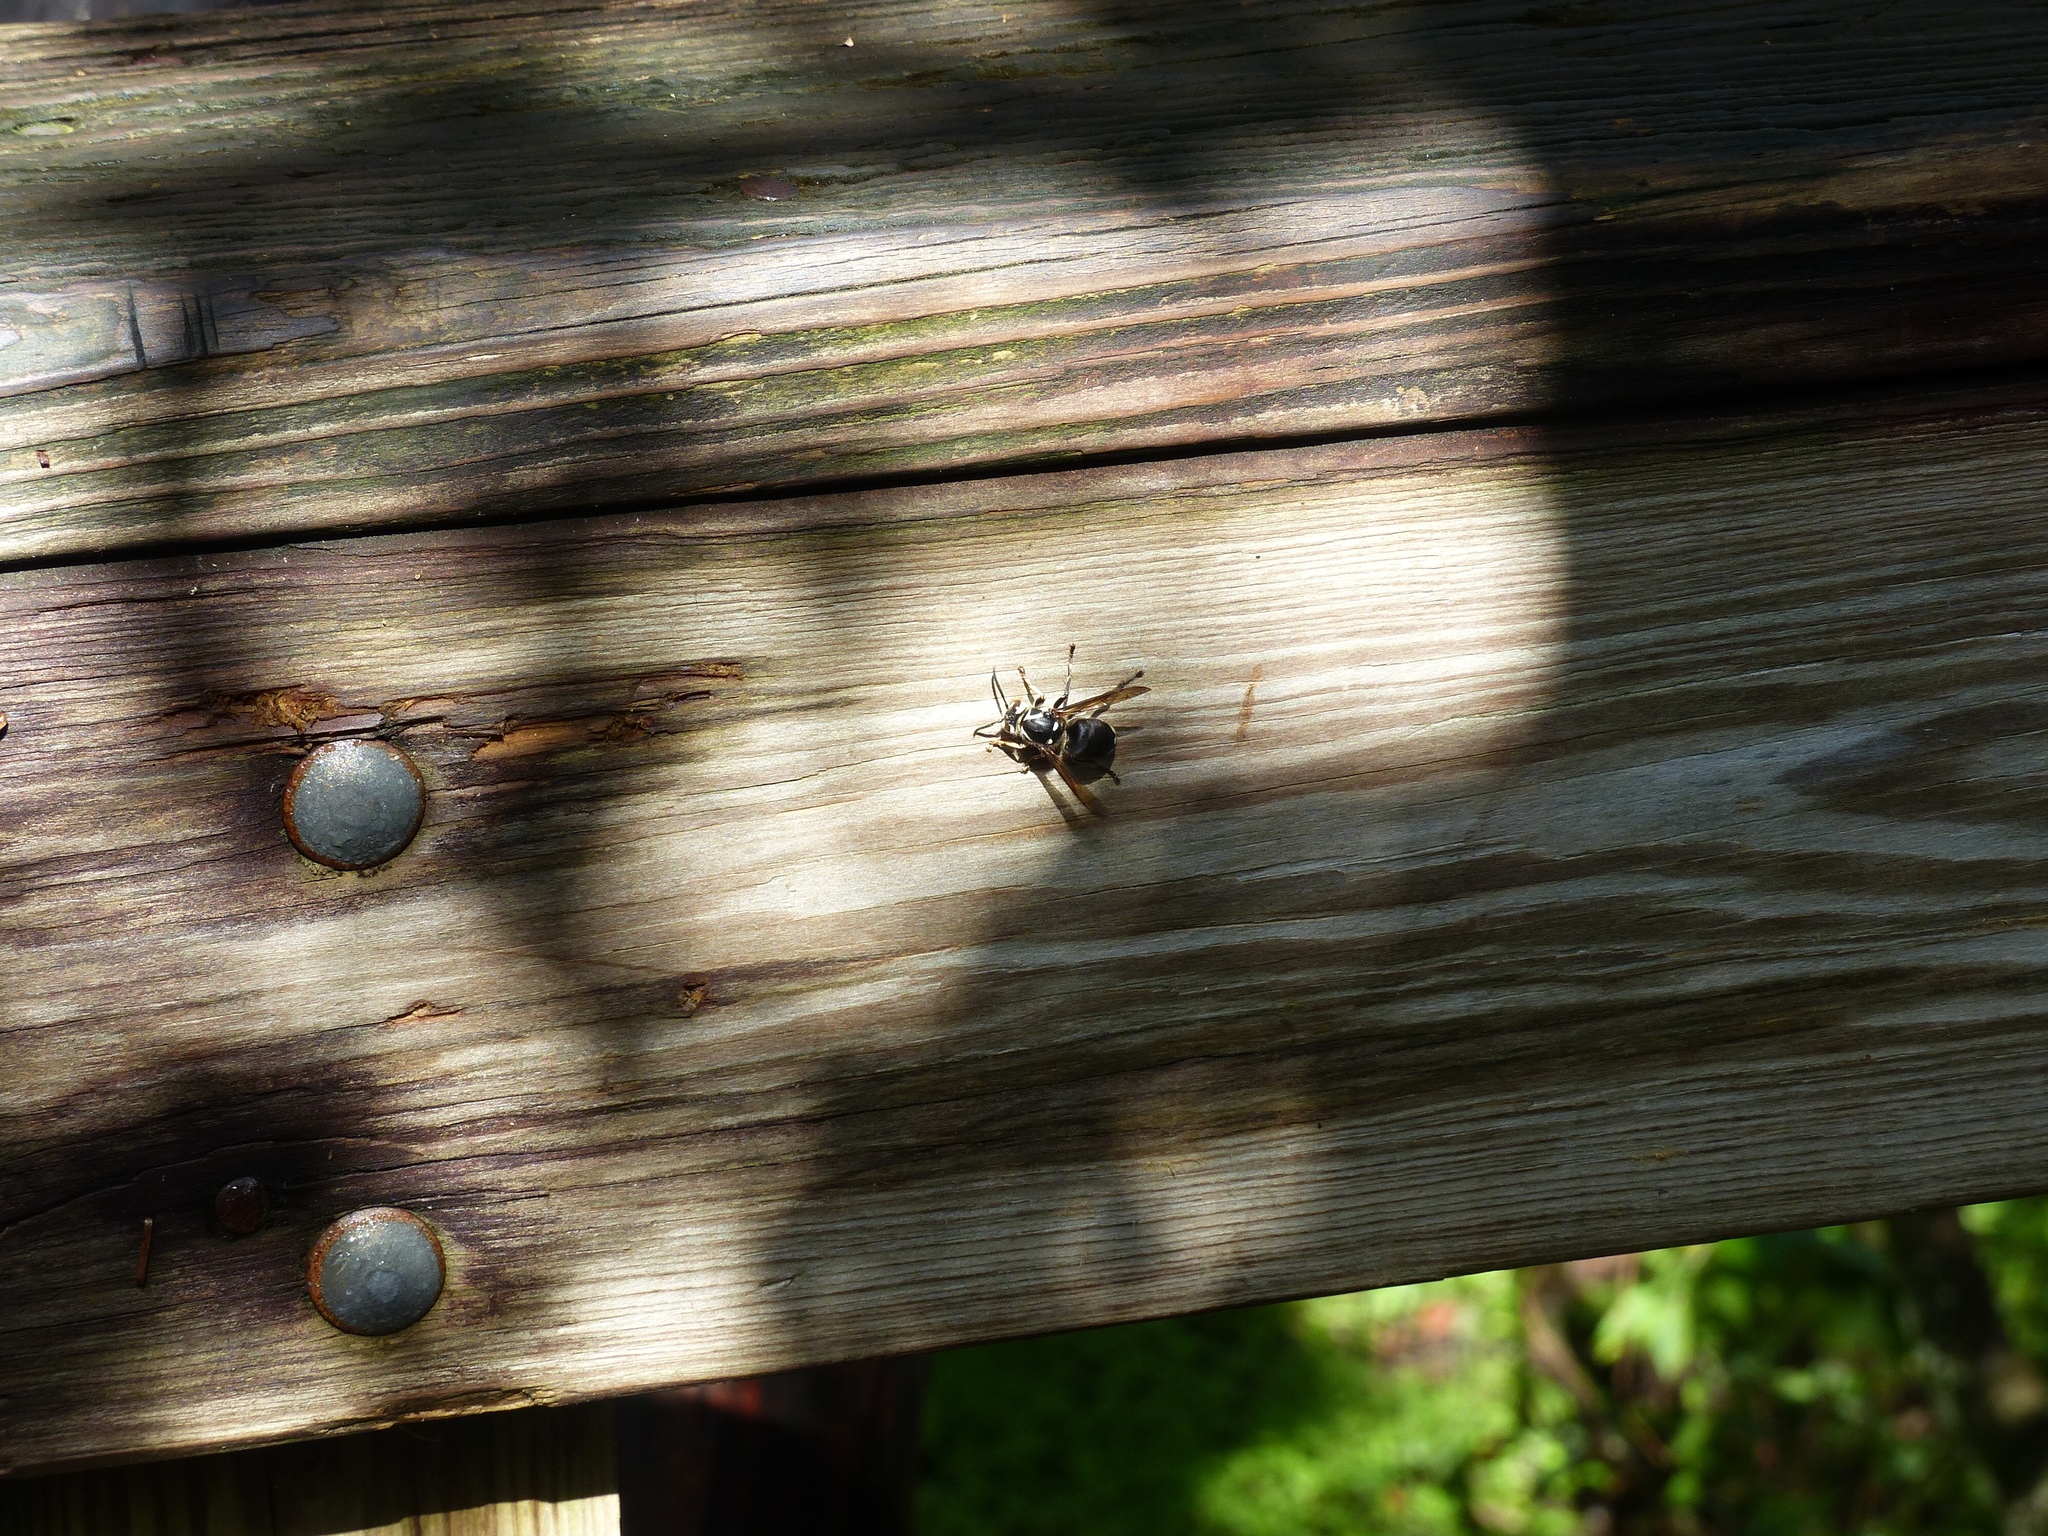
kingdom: Animalia
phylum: Arthropoda
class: Insecta
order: Hymenoptera
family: Vespidae
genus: Dolichovespula
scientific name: Dolichovespula maculata
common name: Bald-faced hornet
